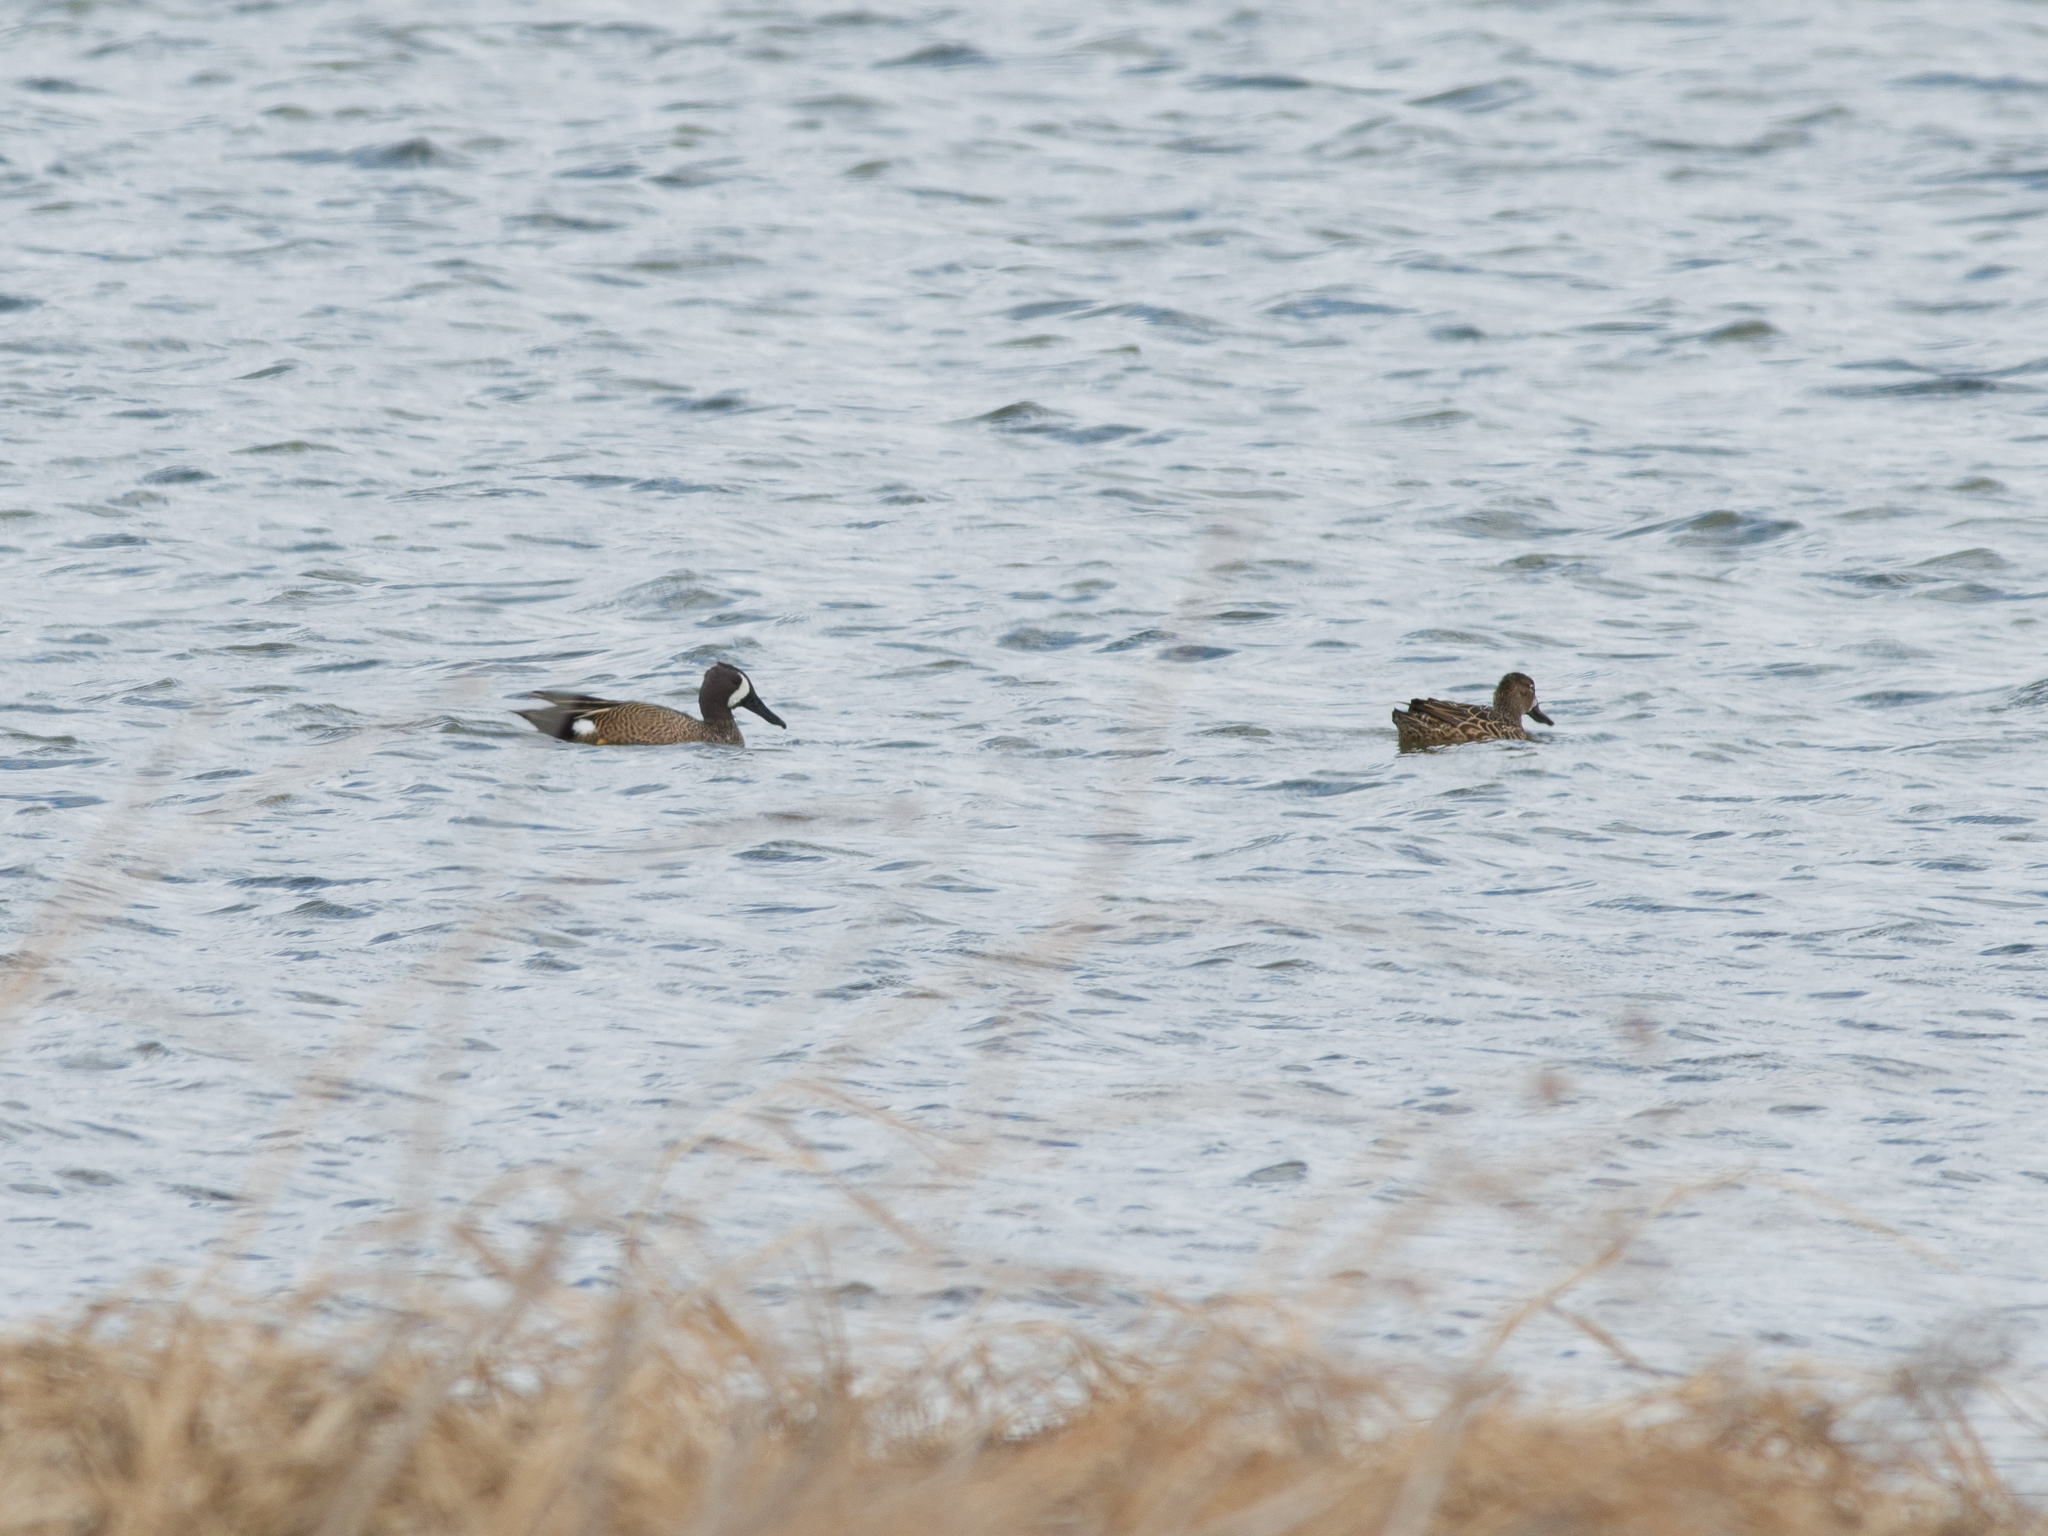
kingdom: Animalia
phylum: Chordata
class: Aves
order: Anseriformes
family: Anatidae
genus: Spatula
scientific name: Spatula discors
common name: Blue-winged teal
